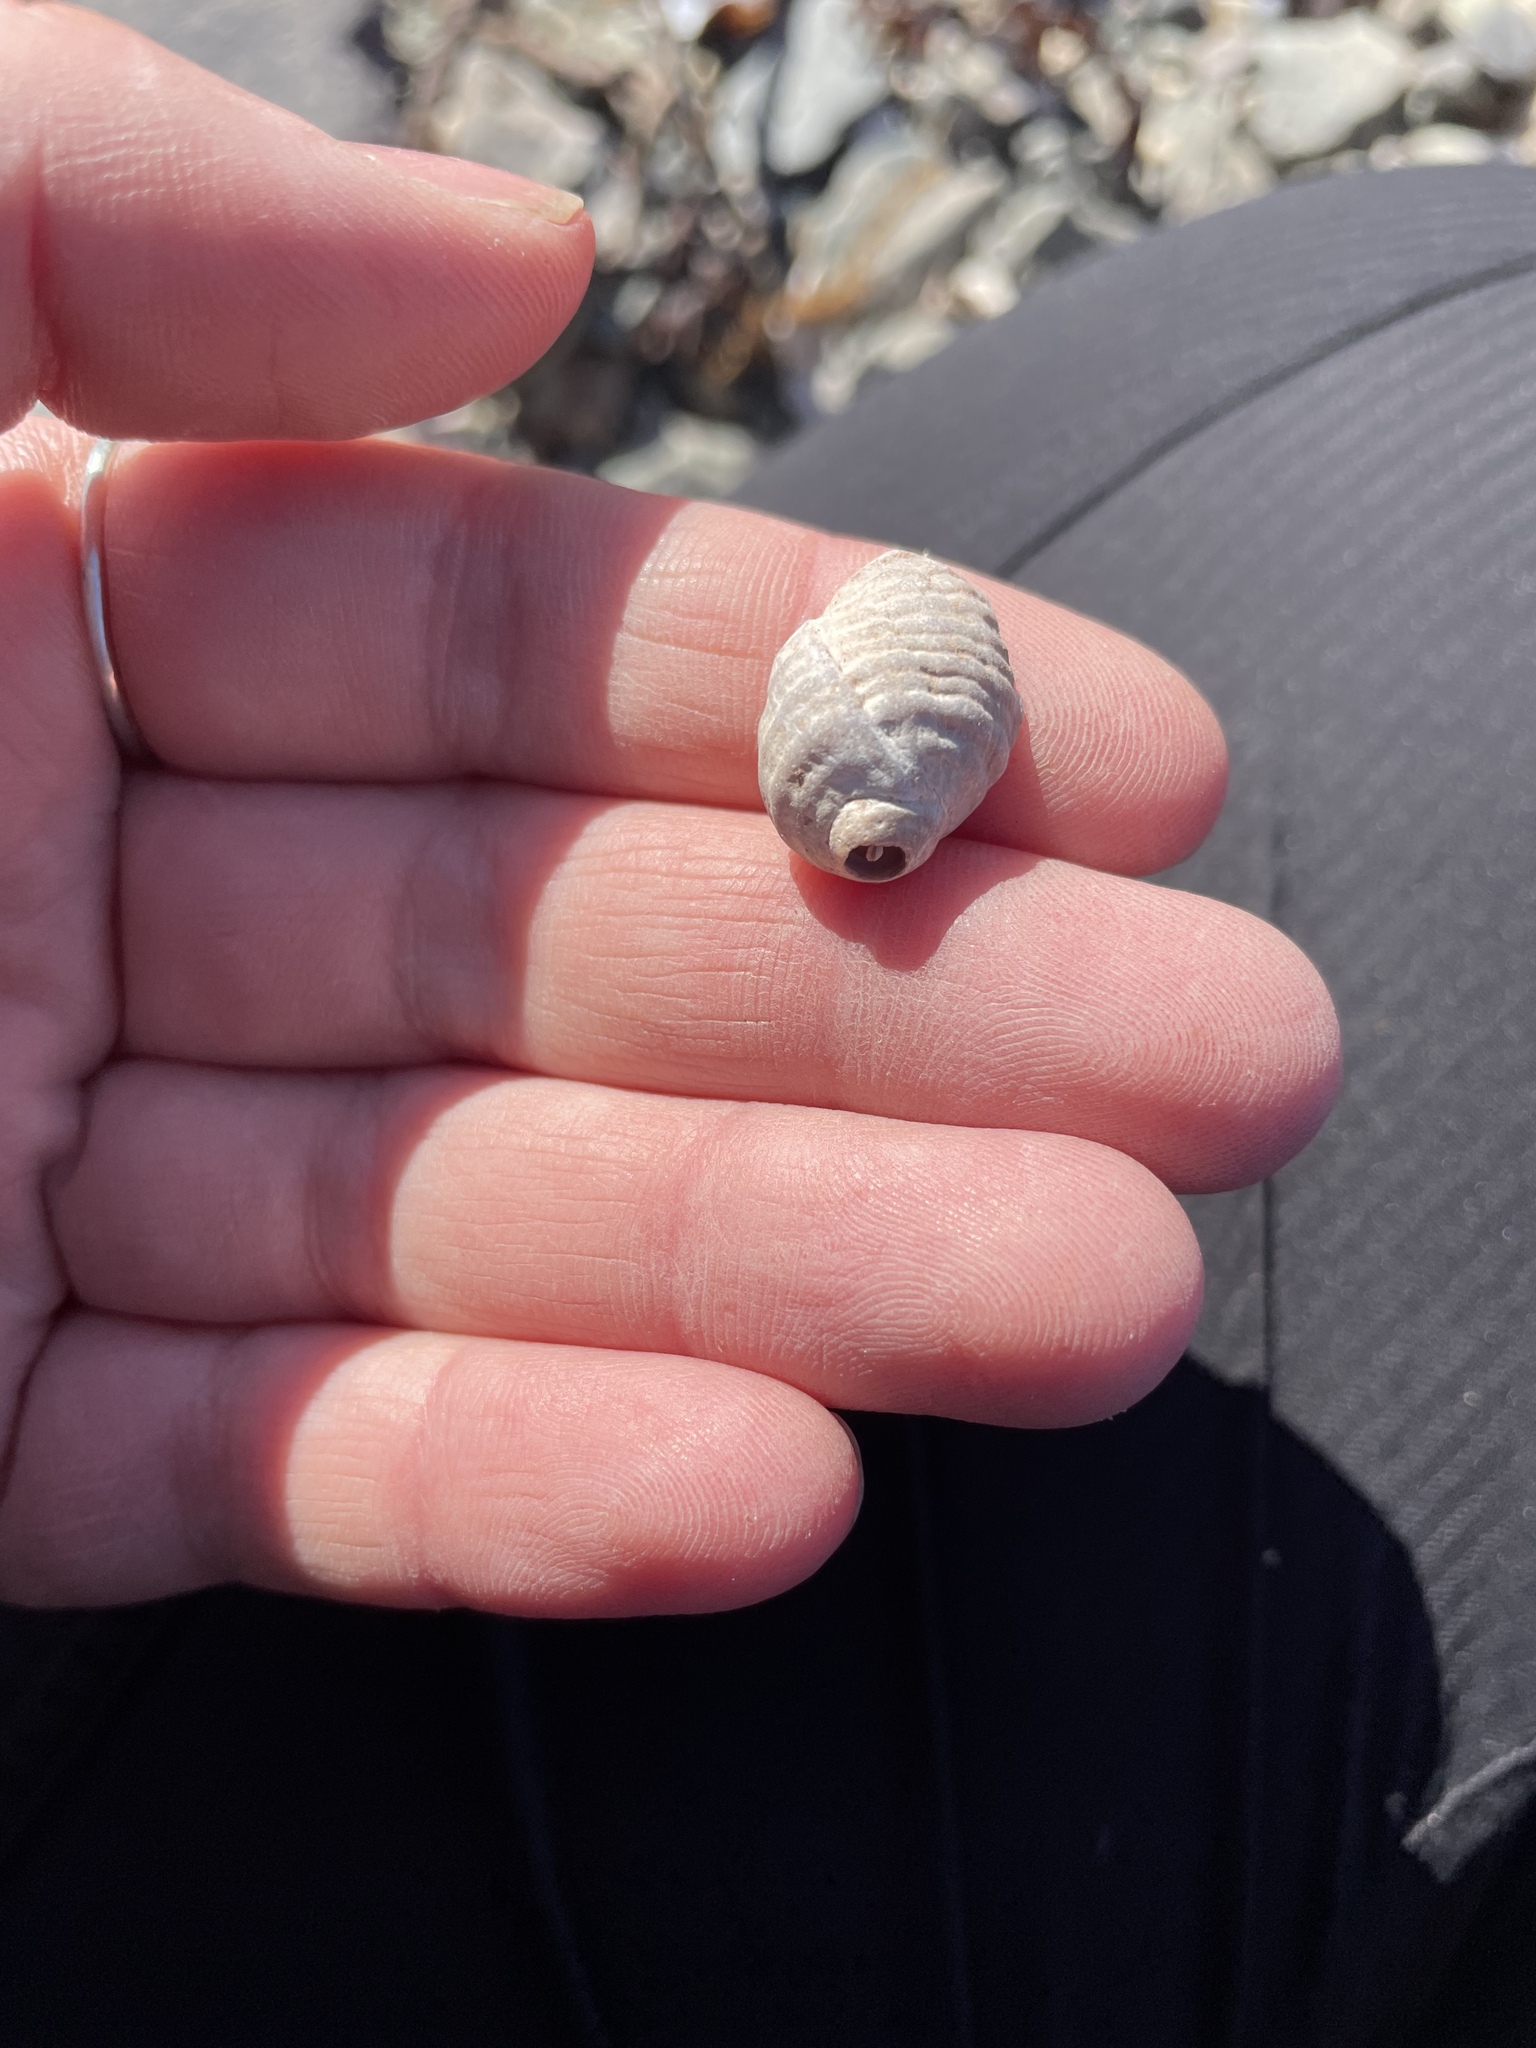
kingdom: Animalia
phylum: Mollusca
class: Gastropoda
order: Neogastropoda
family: Muricidae
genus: Nucella
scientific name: Nucella lapillus
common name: Dog whelk
